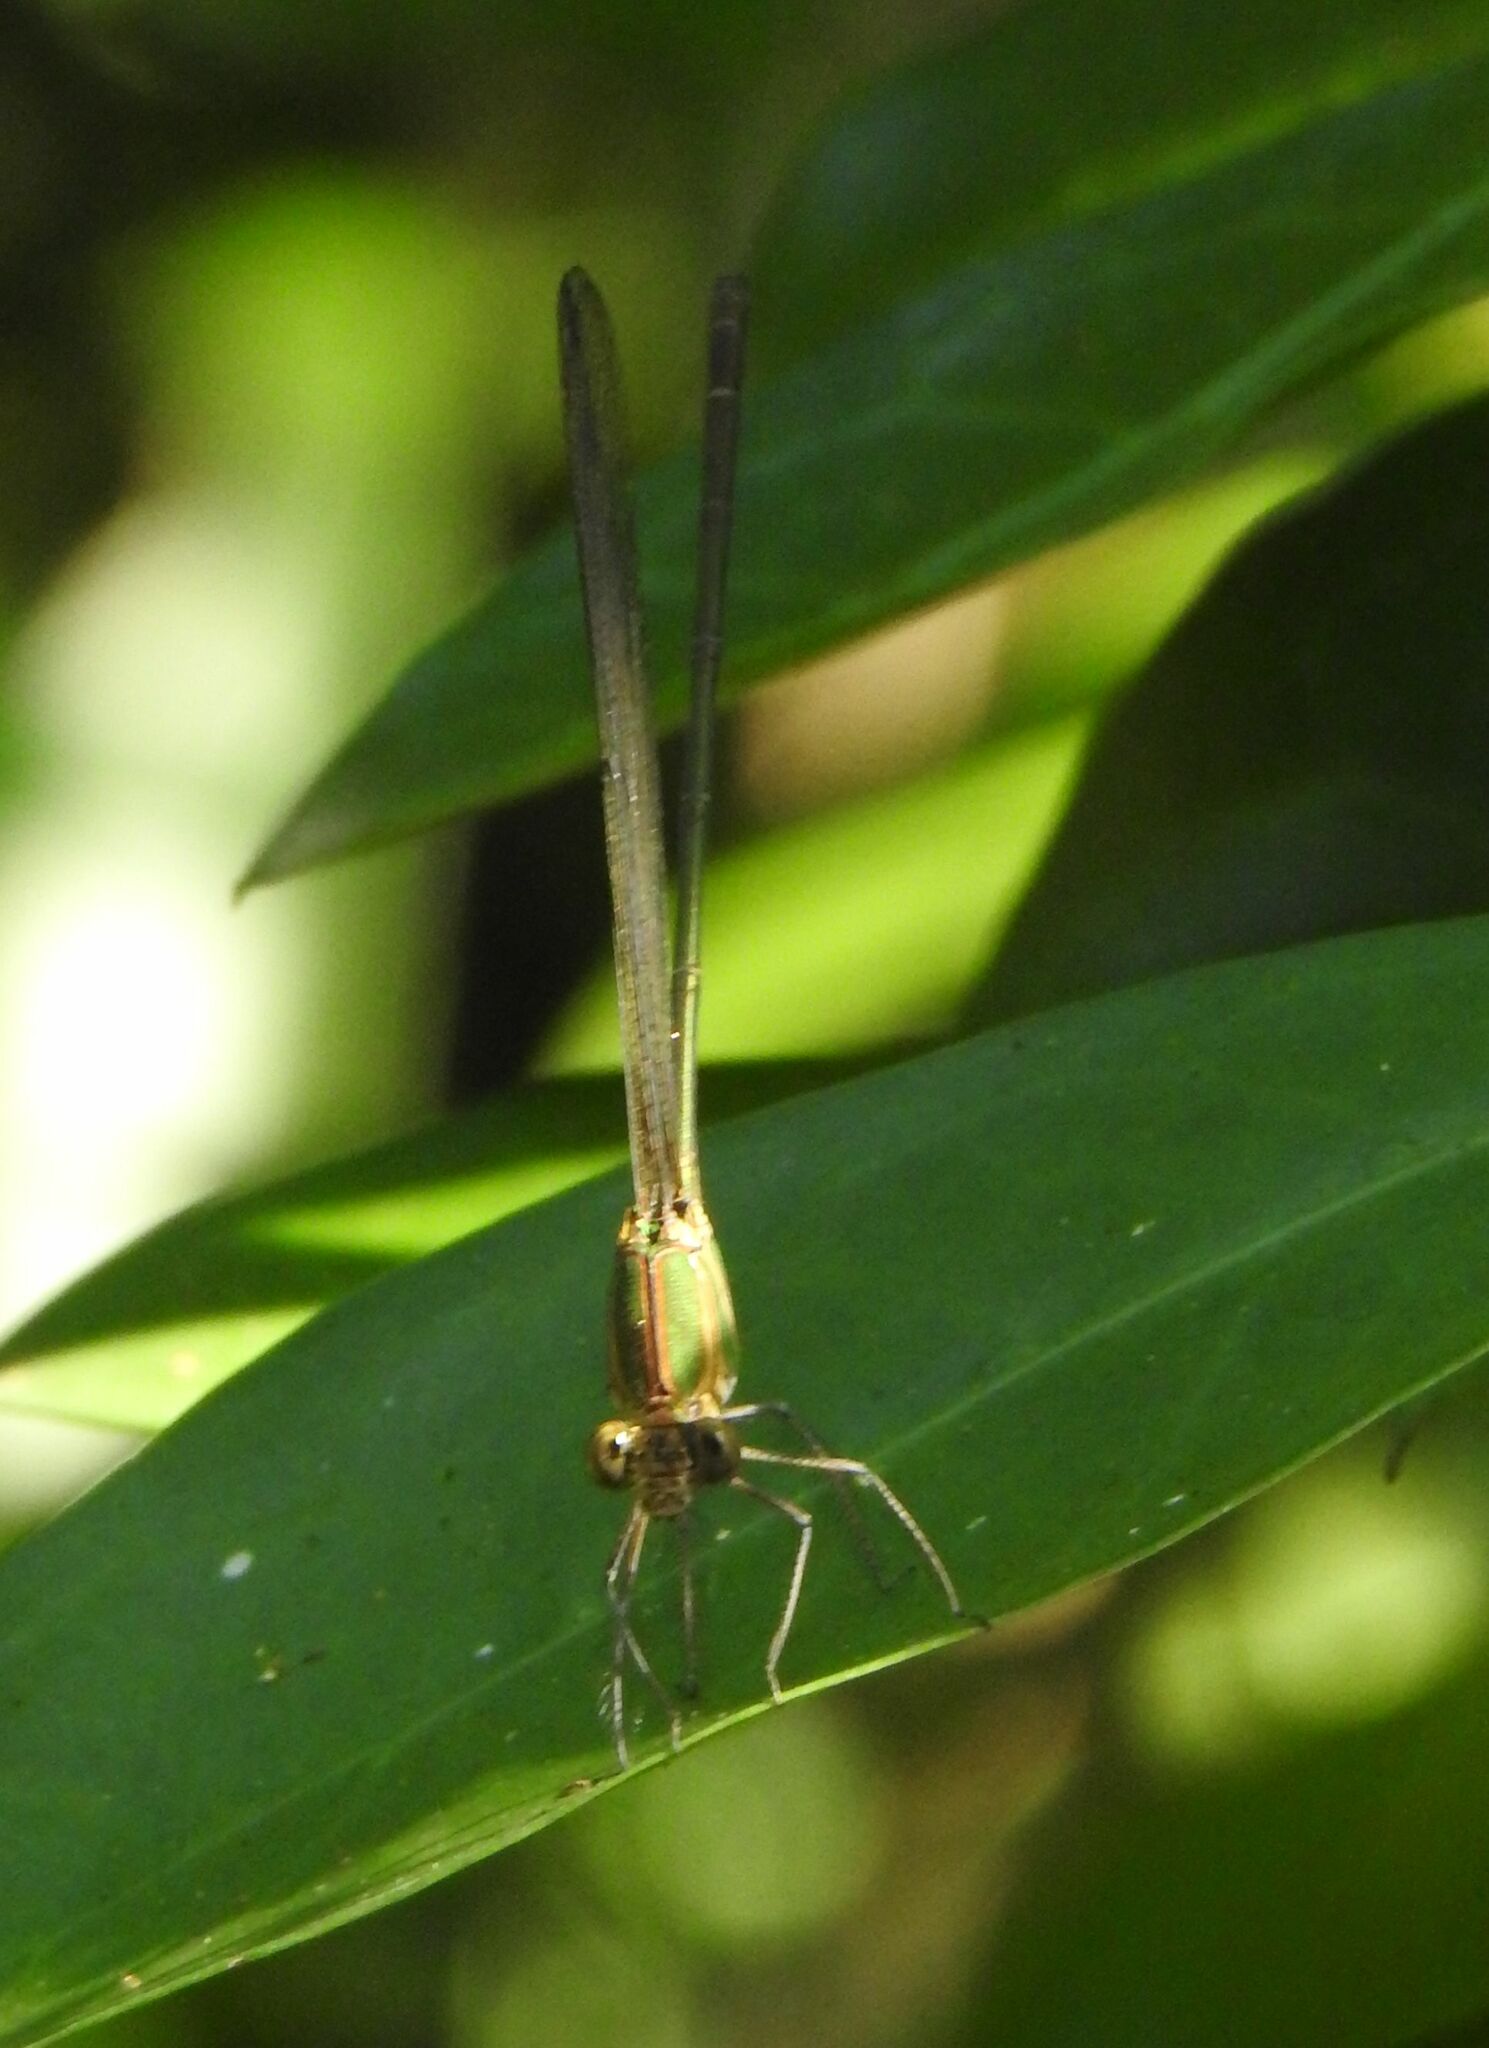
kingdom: Animalia
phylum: Arthropoda
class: Insecta
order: Odonata
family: Calopterygidae
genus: Phaon
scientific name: Phaon iridipennis
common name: Glistening demoiselle
